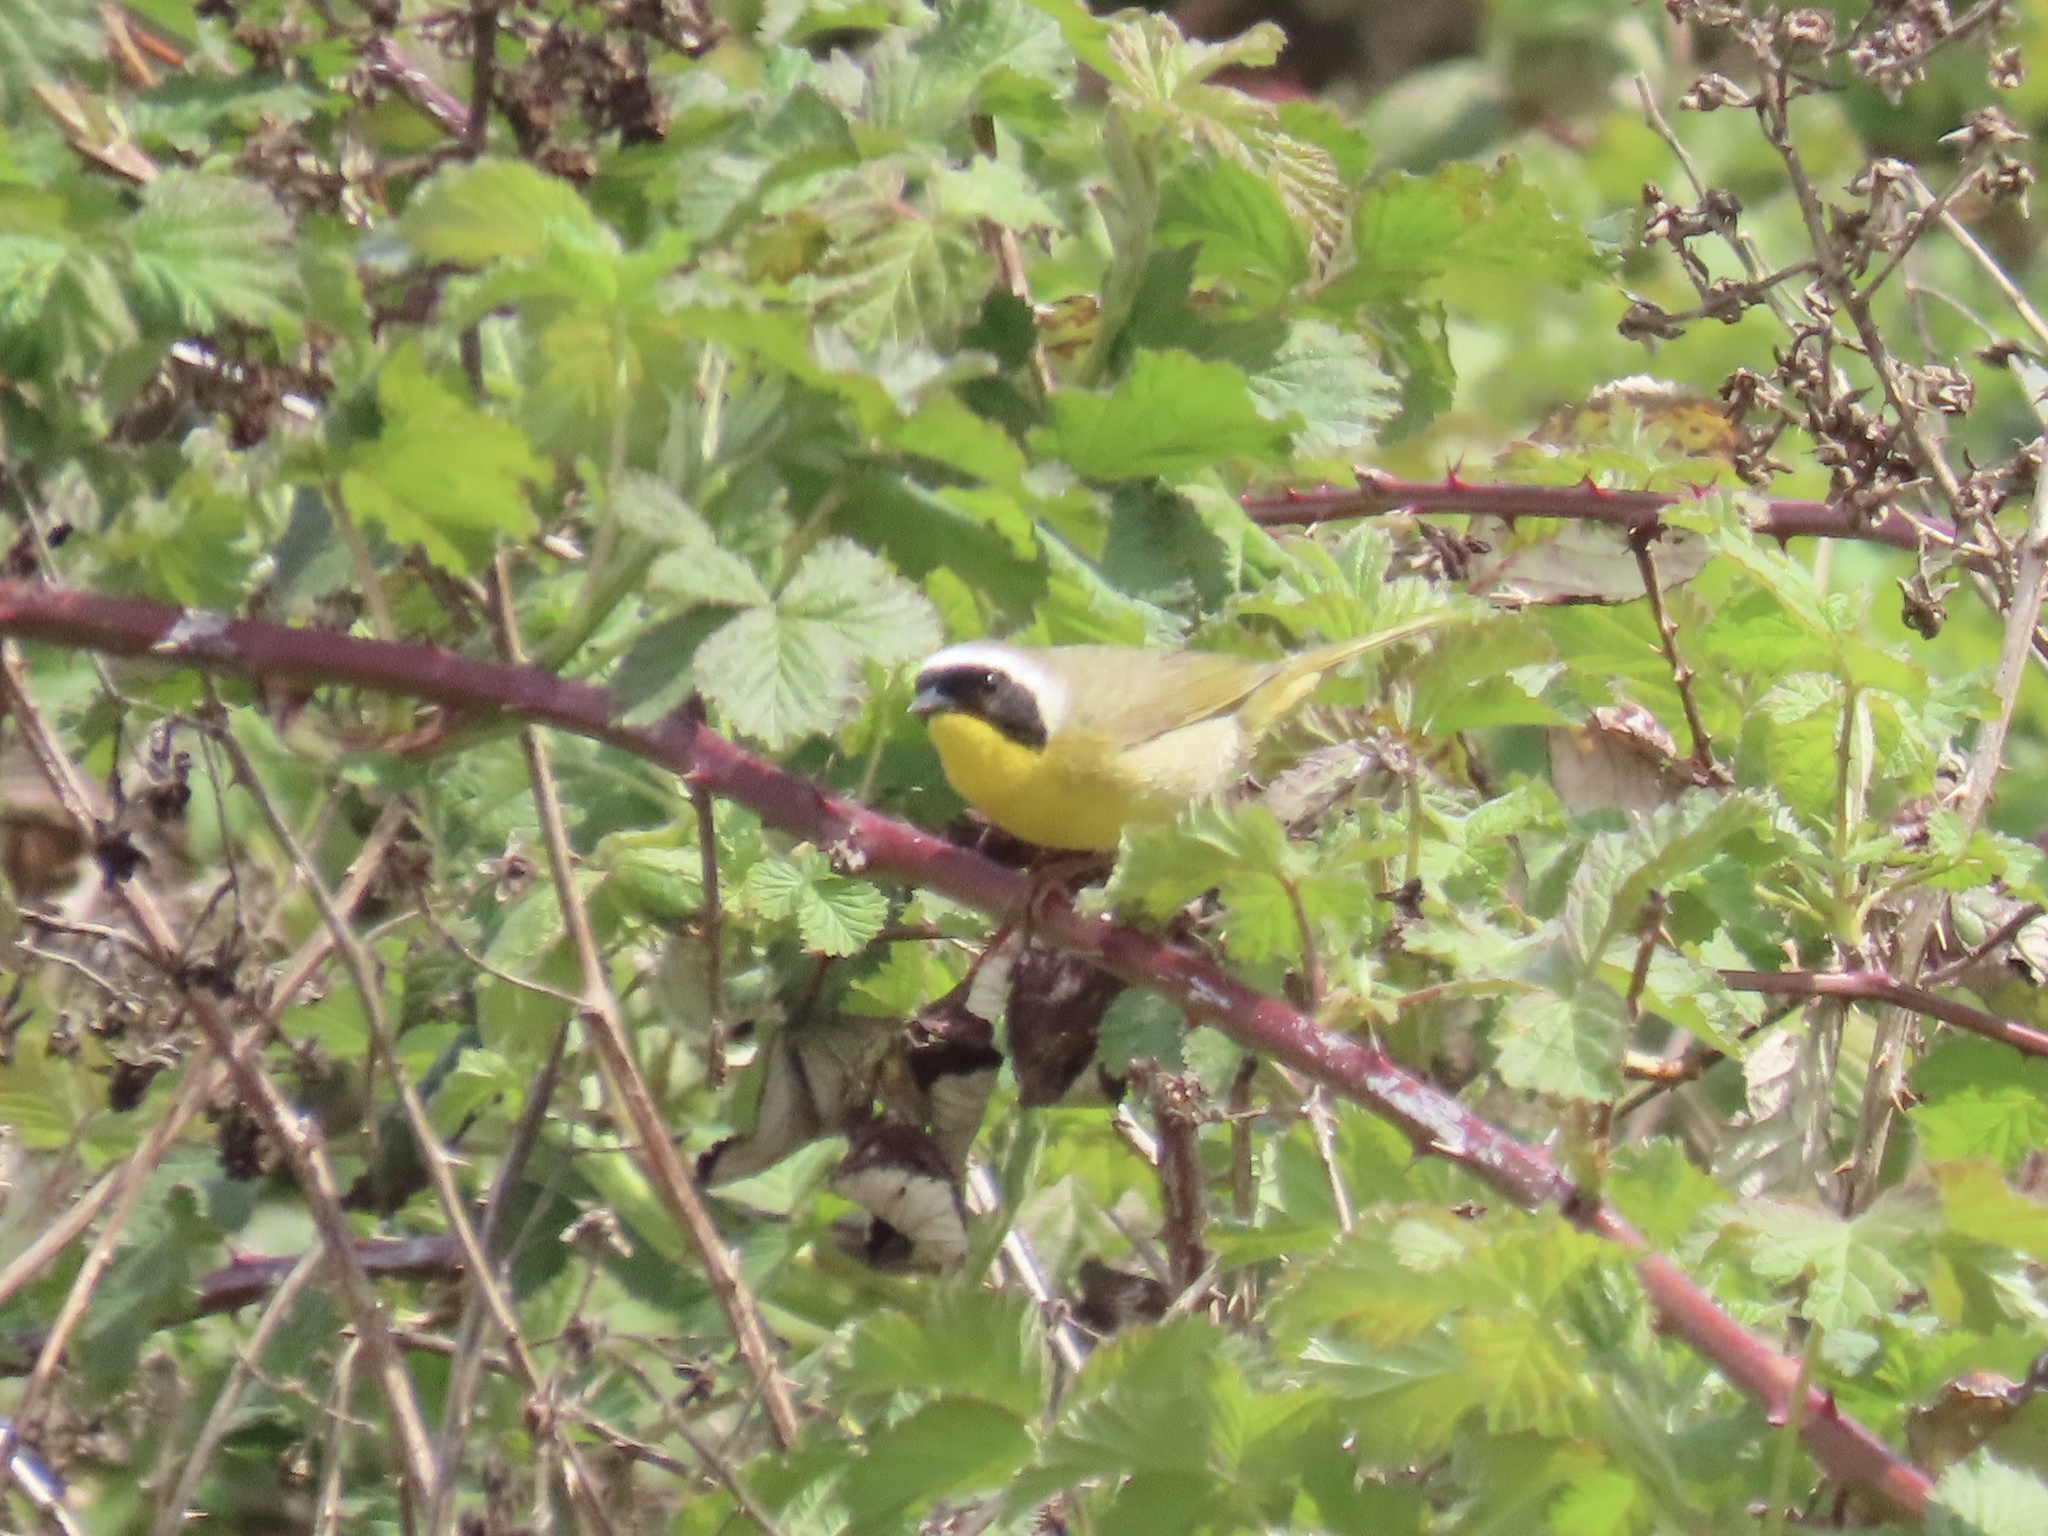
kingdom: Animalia
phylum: Chordata
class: Aves
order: Passeriformes
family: Parulidae
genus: Geothlypis
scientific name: Geothlypis trichas
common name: Common yellowthroat
